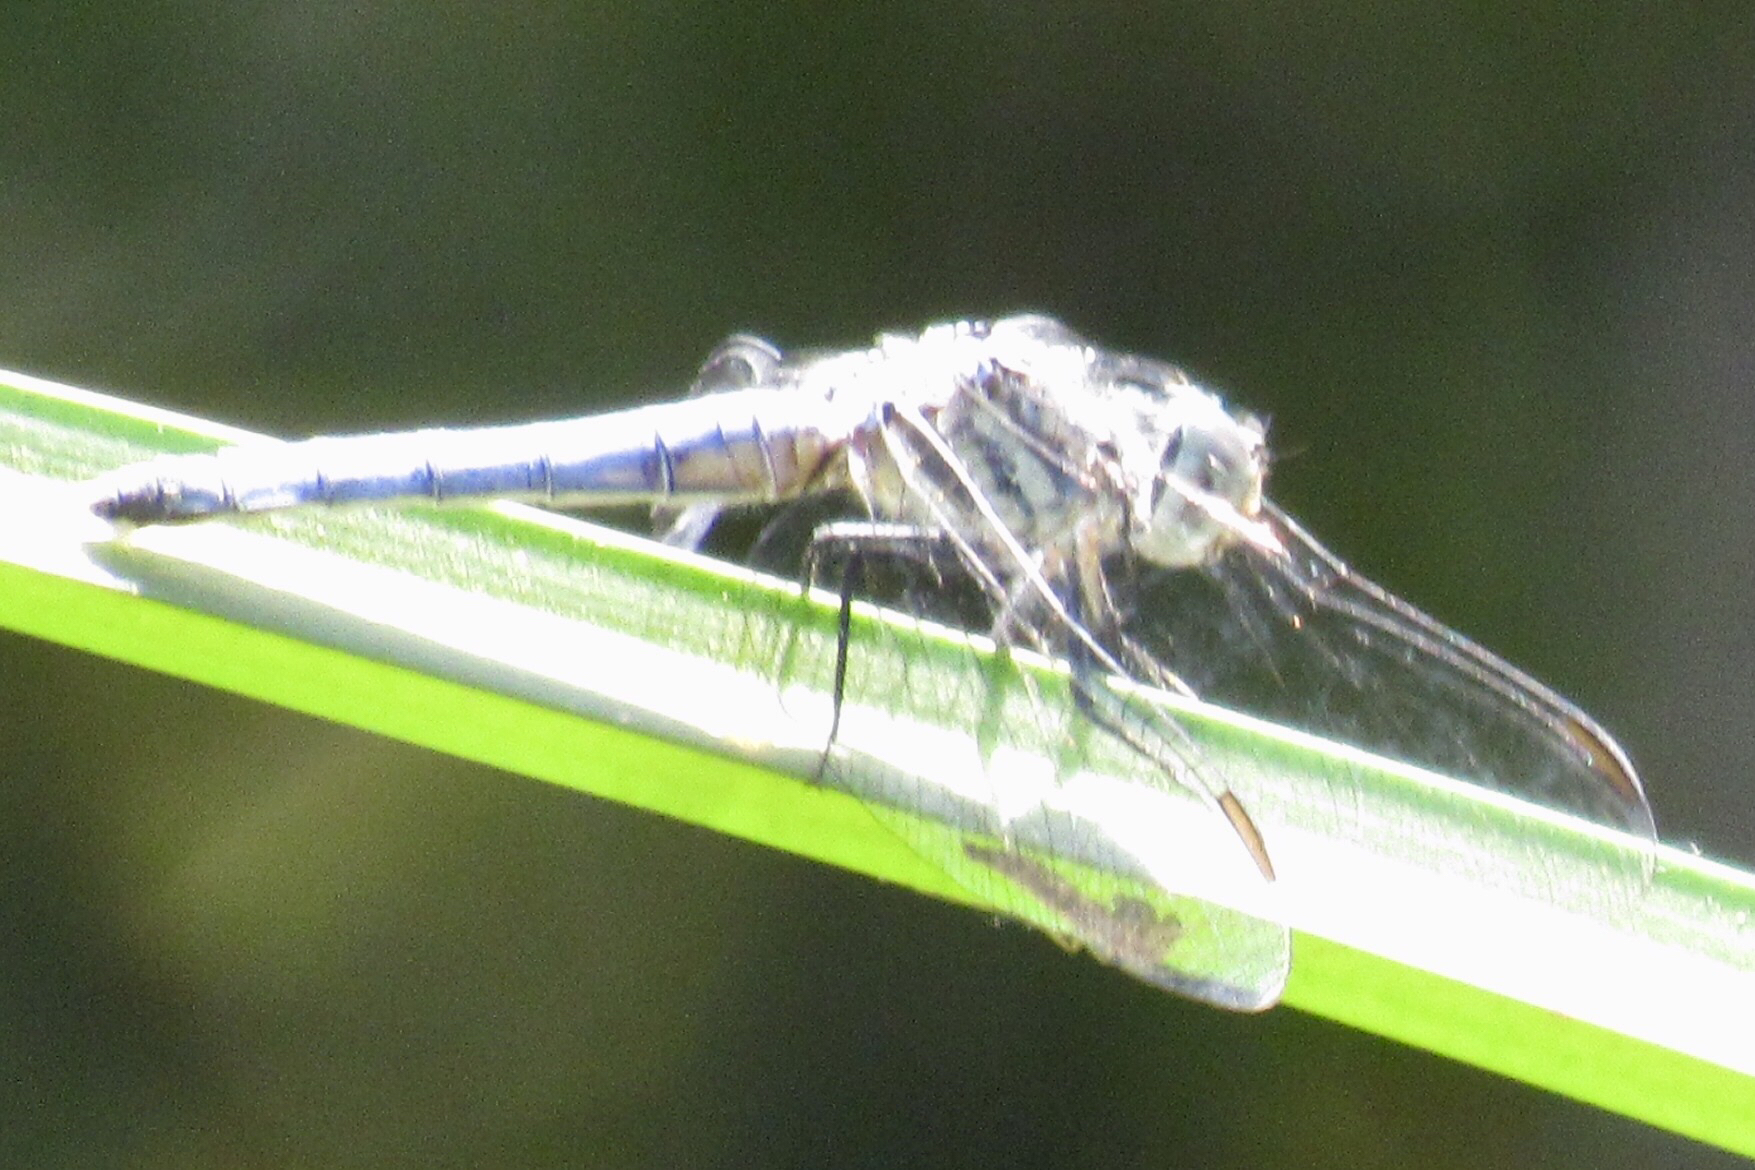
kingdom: Animalia
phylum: Arthropoda
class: Insecta
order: Odonata
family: Libellulidae
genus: Pachydiplax
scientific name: Pachydiplax longipennis
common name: Blue dasher
